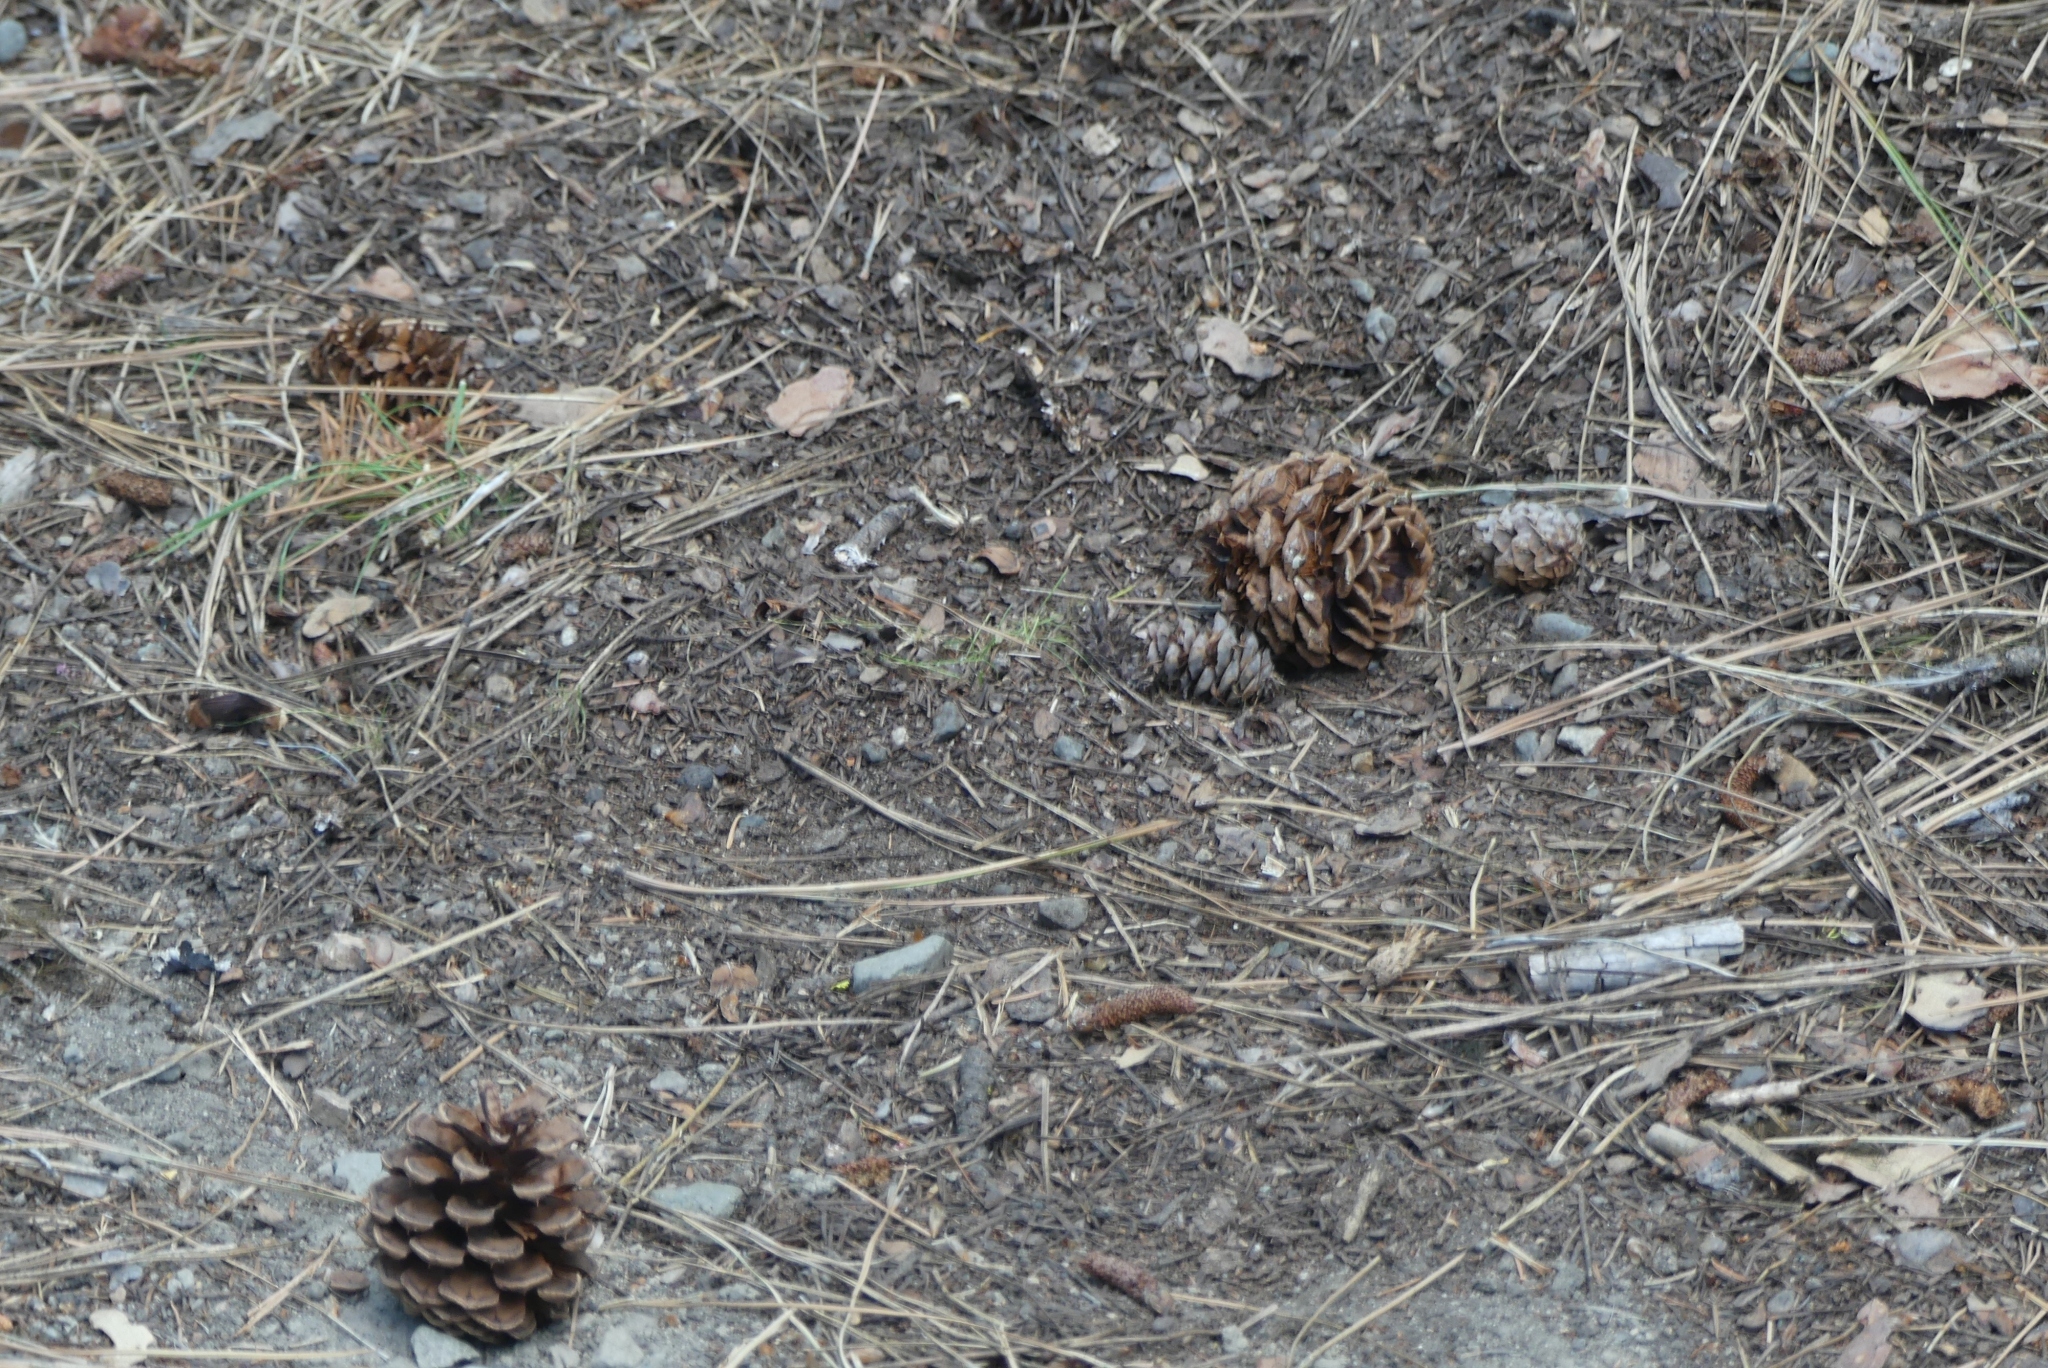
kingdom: Plantae
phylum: Tracheophyta
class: Pinopsida
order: Pinales
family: Pinaceae
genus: Pinus
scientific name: Pinus ponderosa
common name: Western yellow-pine
